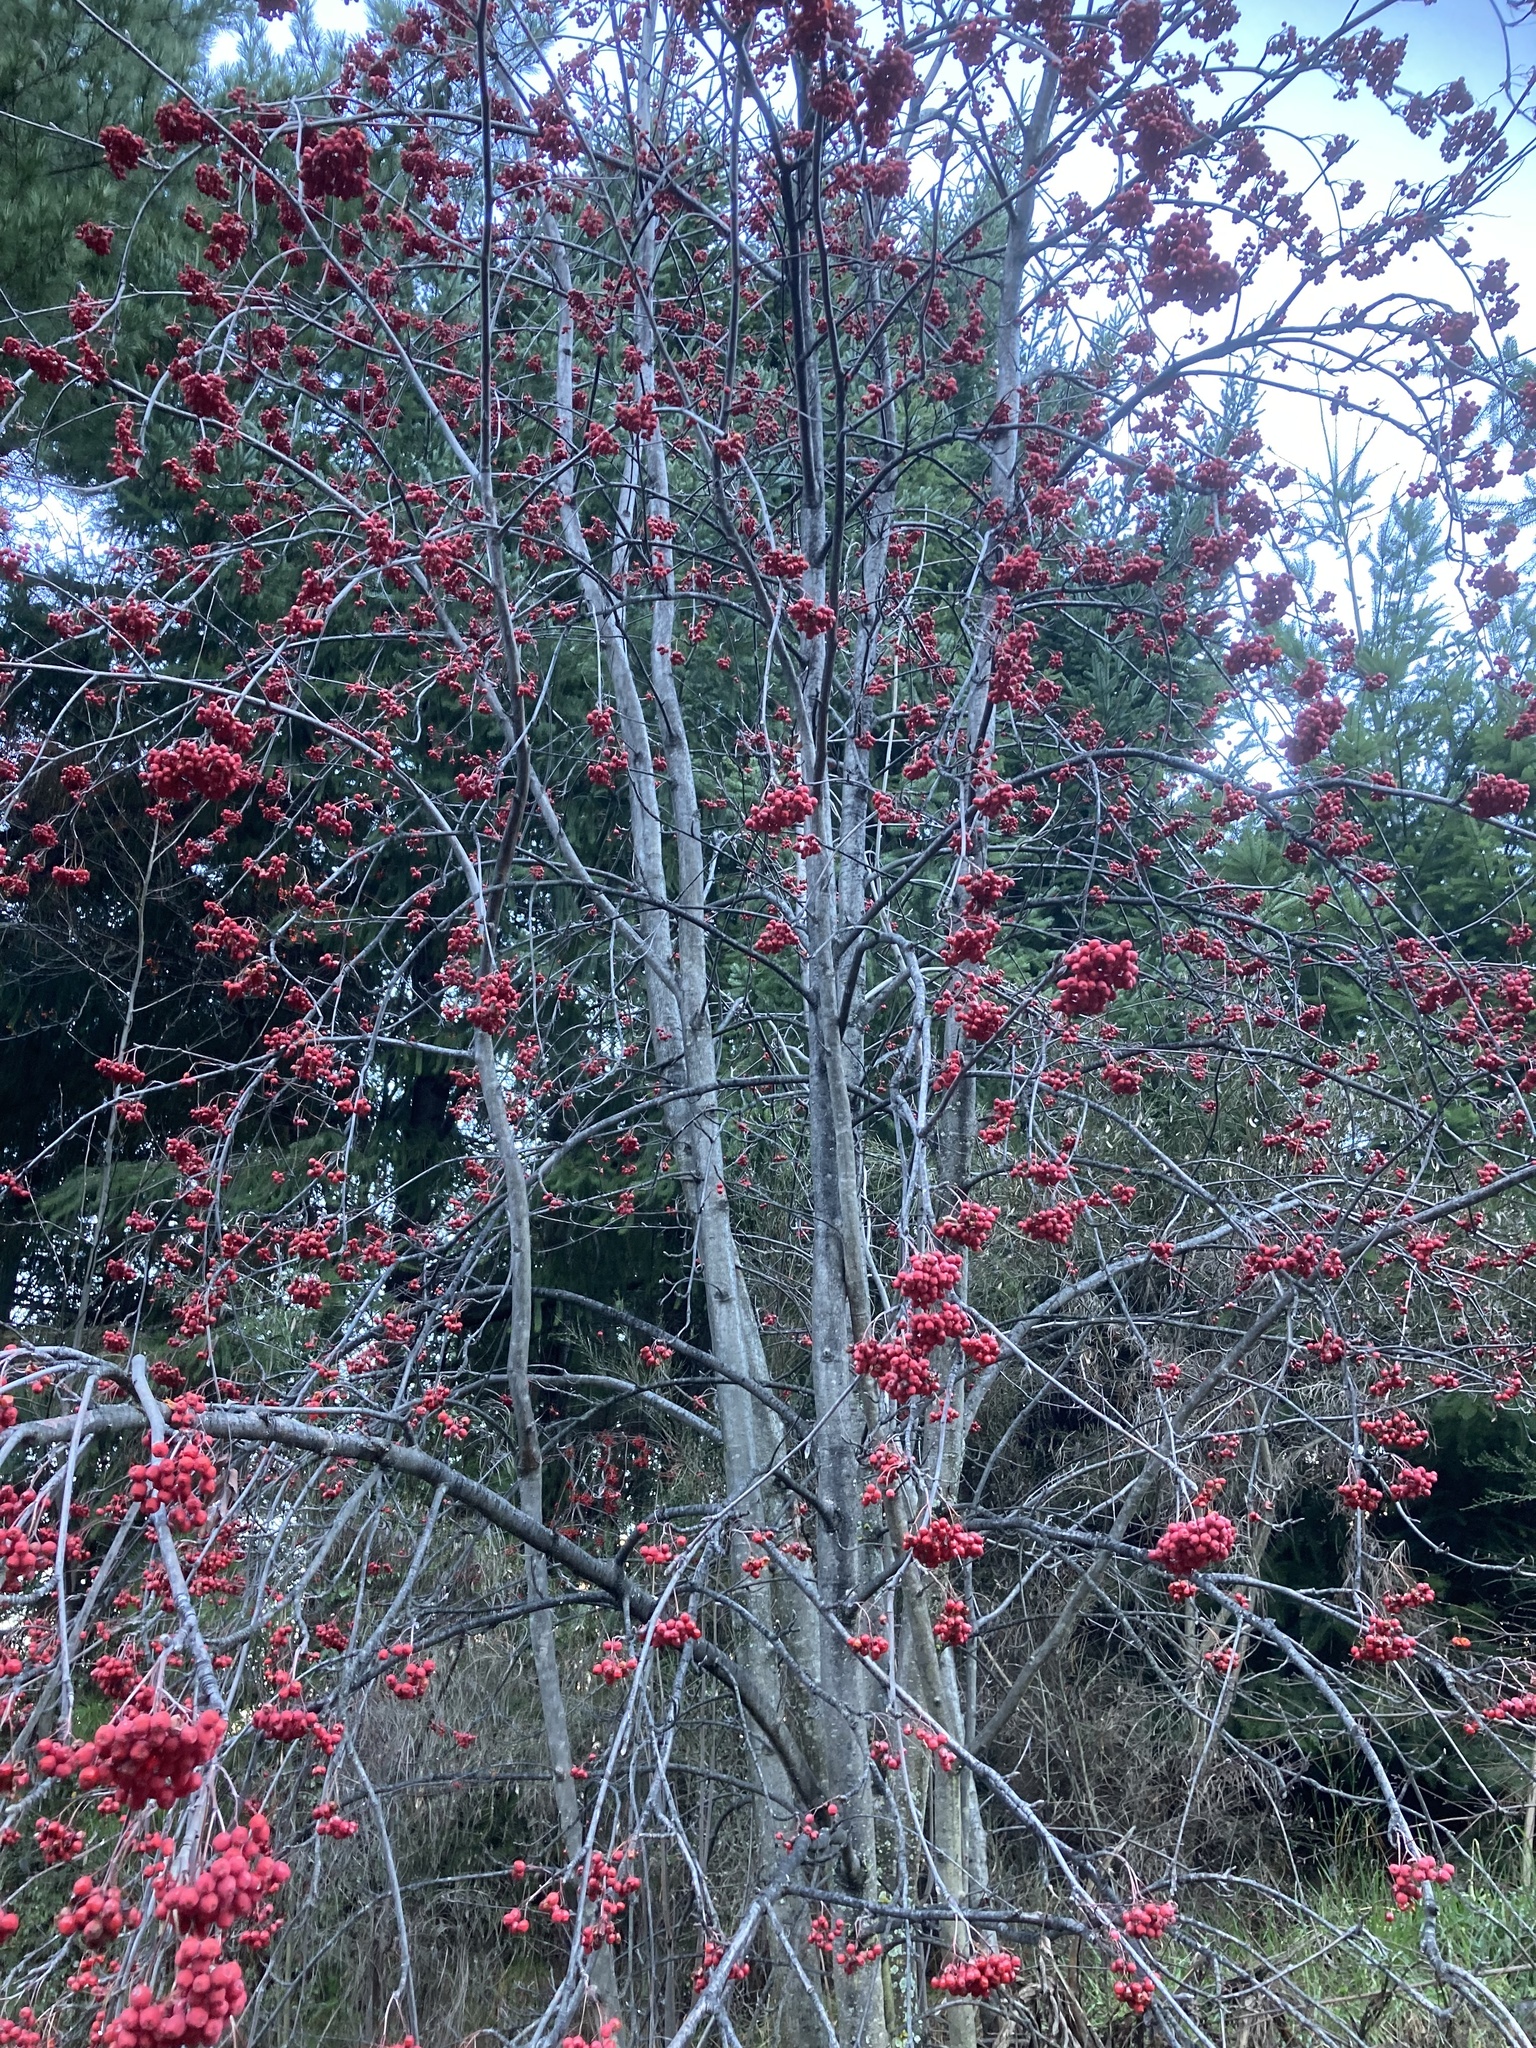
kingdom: Plantae
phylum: Tracheophyta
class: Magnoliopsida
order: Rosales
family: Rosaceae
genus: Sorbus
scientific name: Sorbus aucuparia
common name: Rowan
